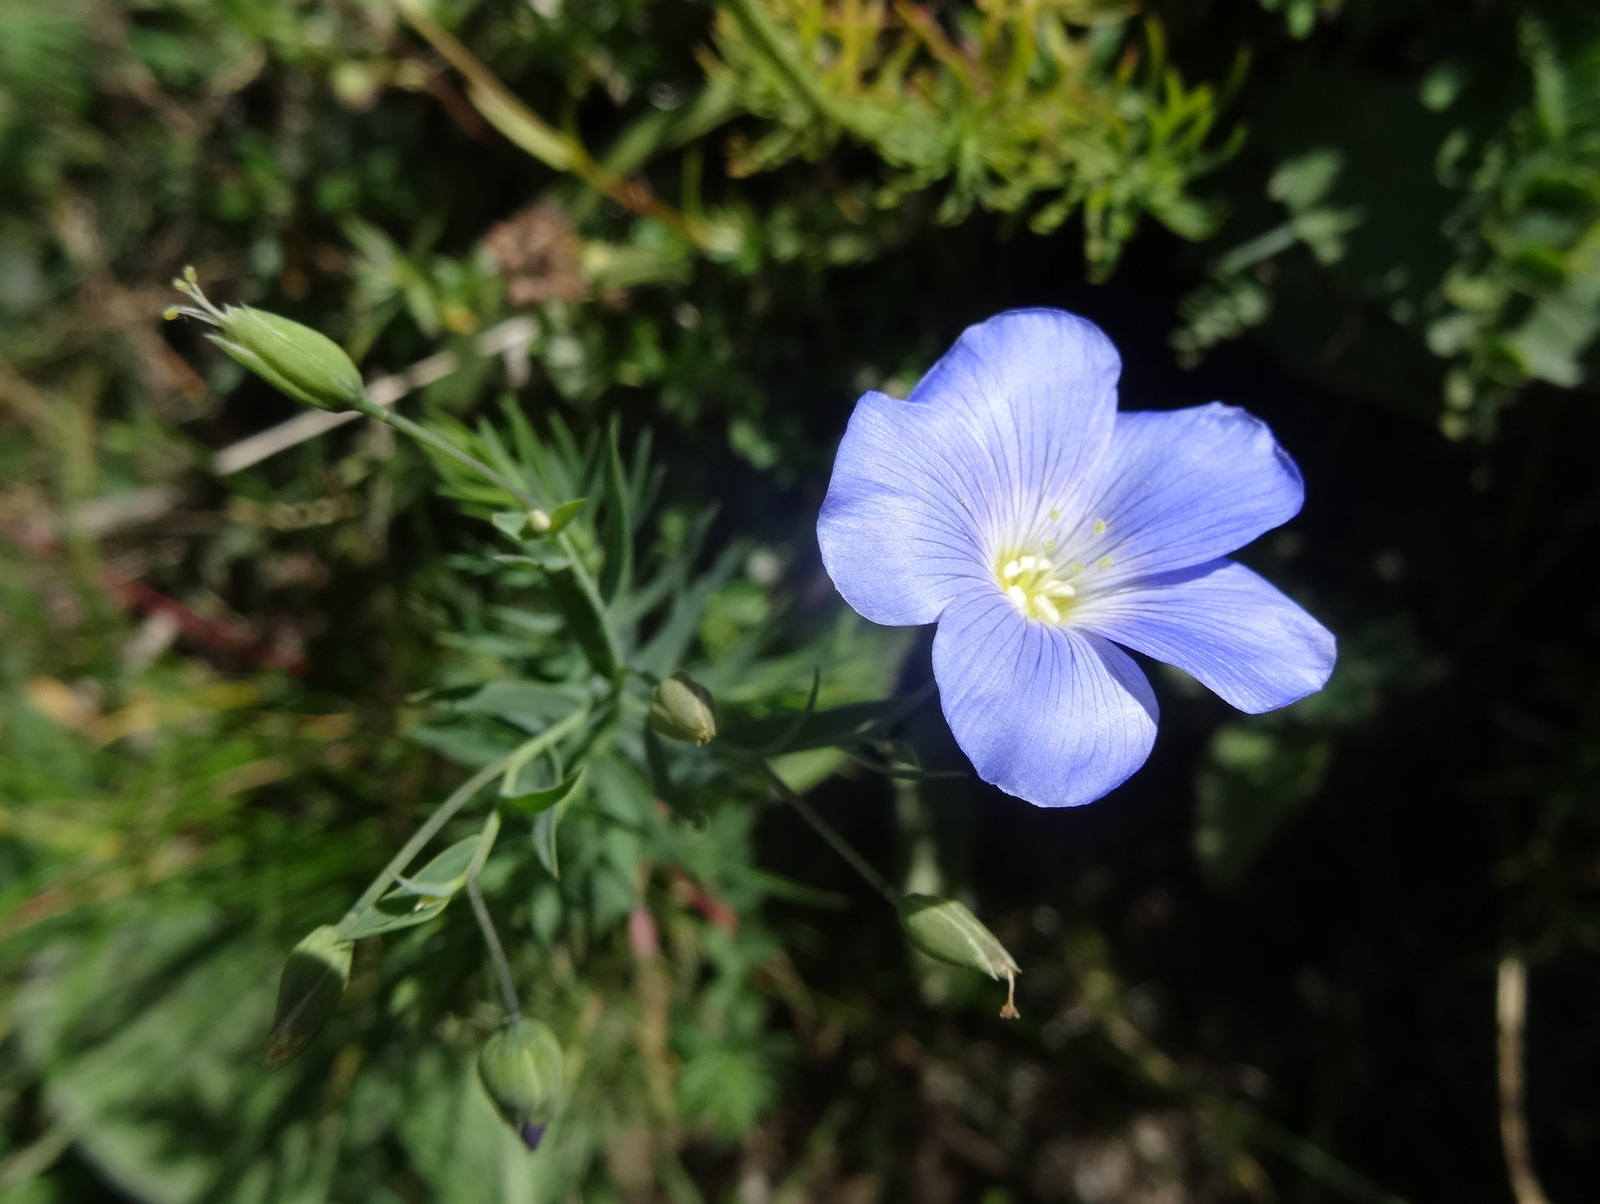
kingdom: Plantae
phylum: Tracheophyta
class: Magnoliopsida
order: Malpighiales
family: Linaceae
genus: Linum
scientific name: Linum alpinum
